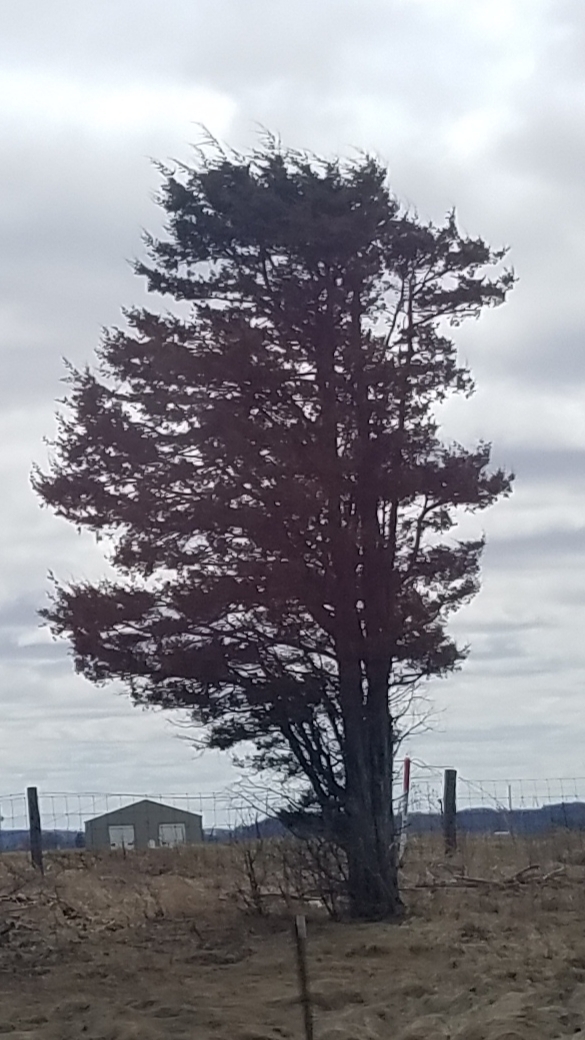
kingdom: Plantae
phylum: Tracheophyta
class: Pinopsida
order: Pinales
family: Cupressaceae
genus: Juniperus
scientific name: Juniperus virginiana
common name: Red juniper
